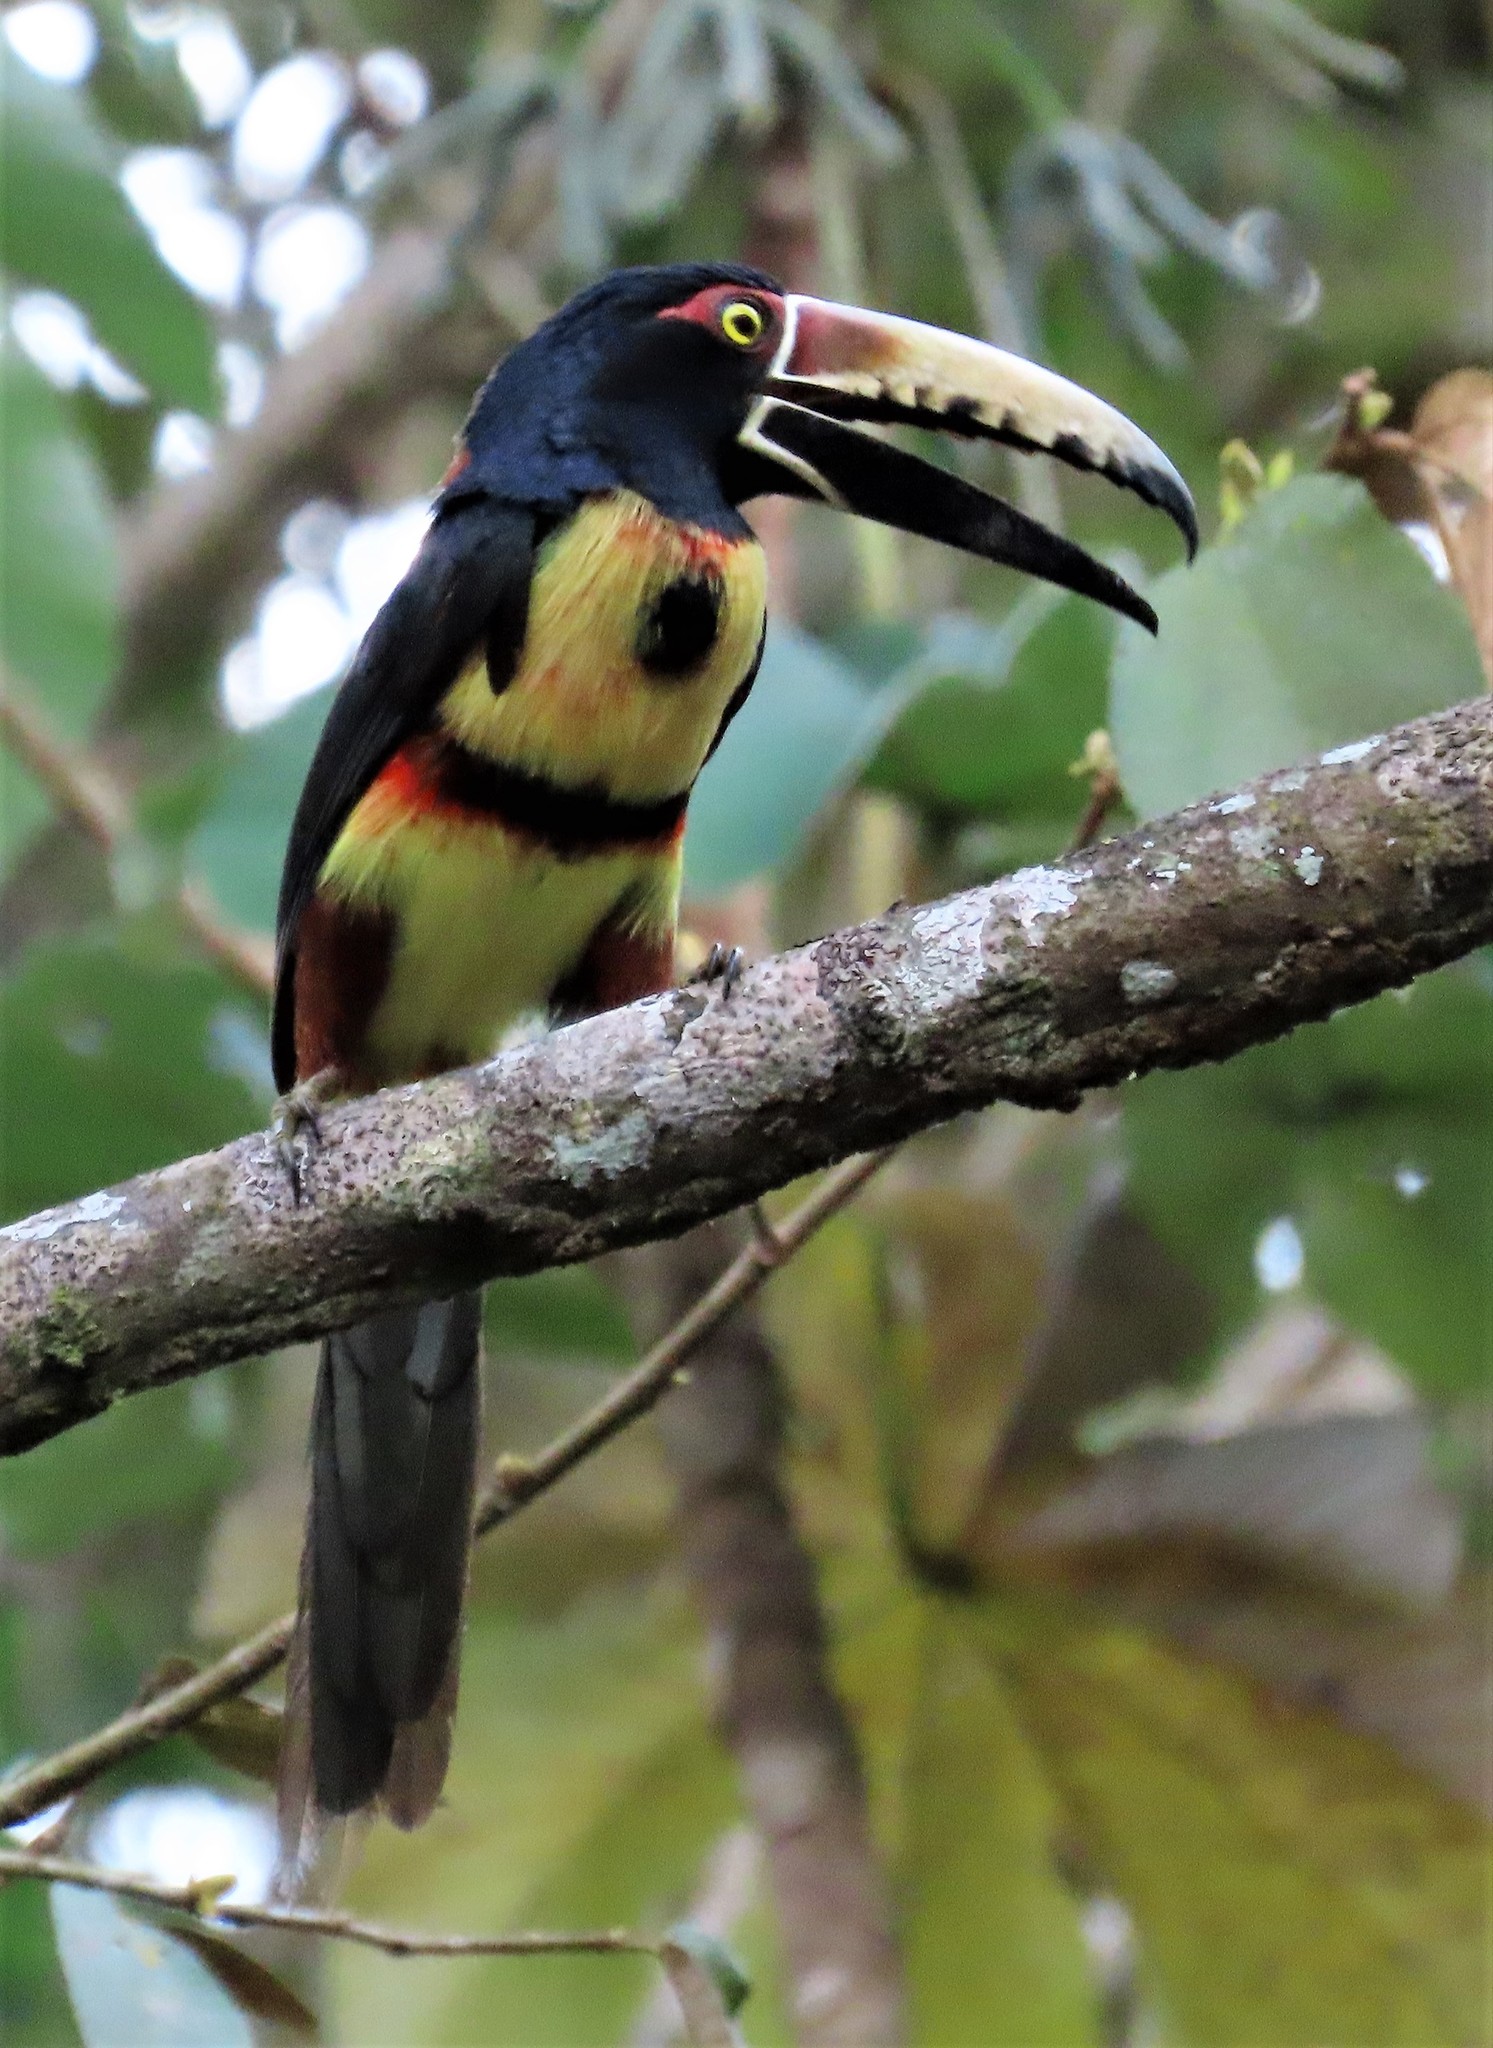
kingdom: Animalia
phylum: Chordata
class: Aves
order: Piciformes
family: Ramphastidae
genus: Pteroglossus
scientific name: Pteroglossus torquatus
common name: Collared aracari
